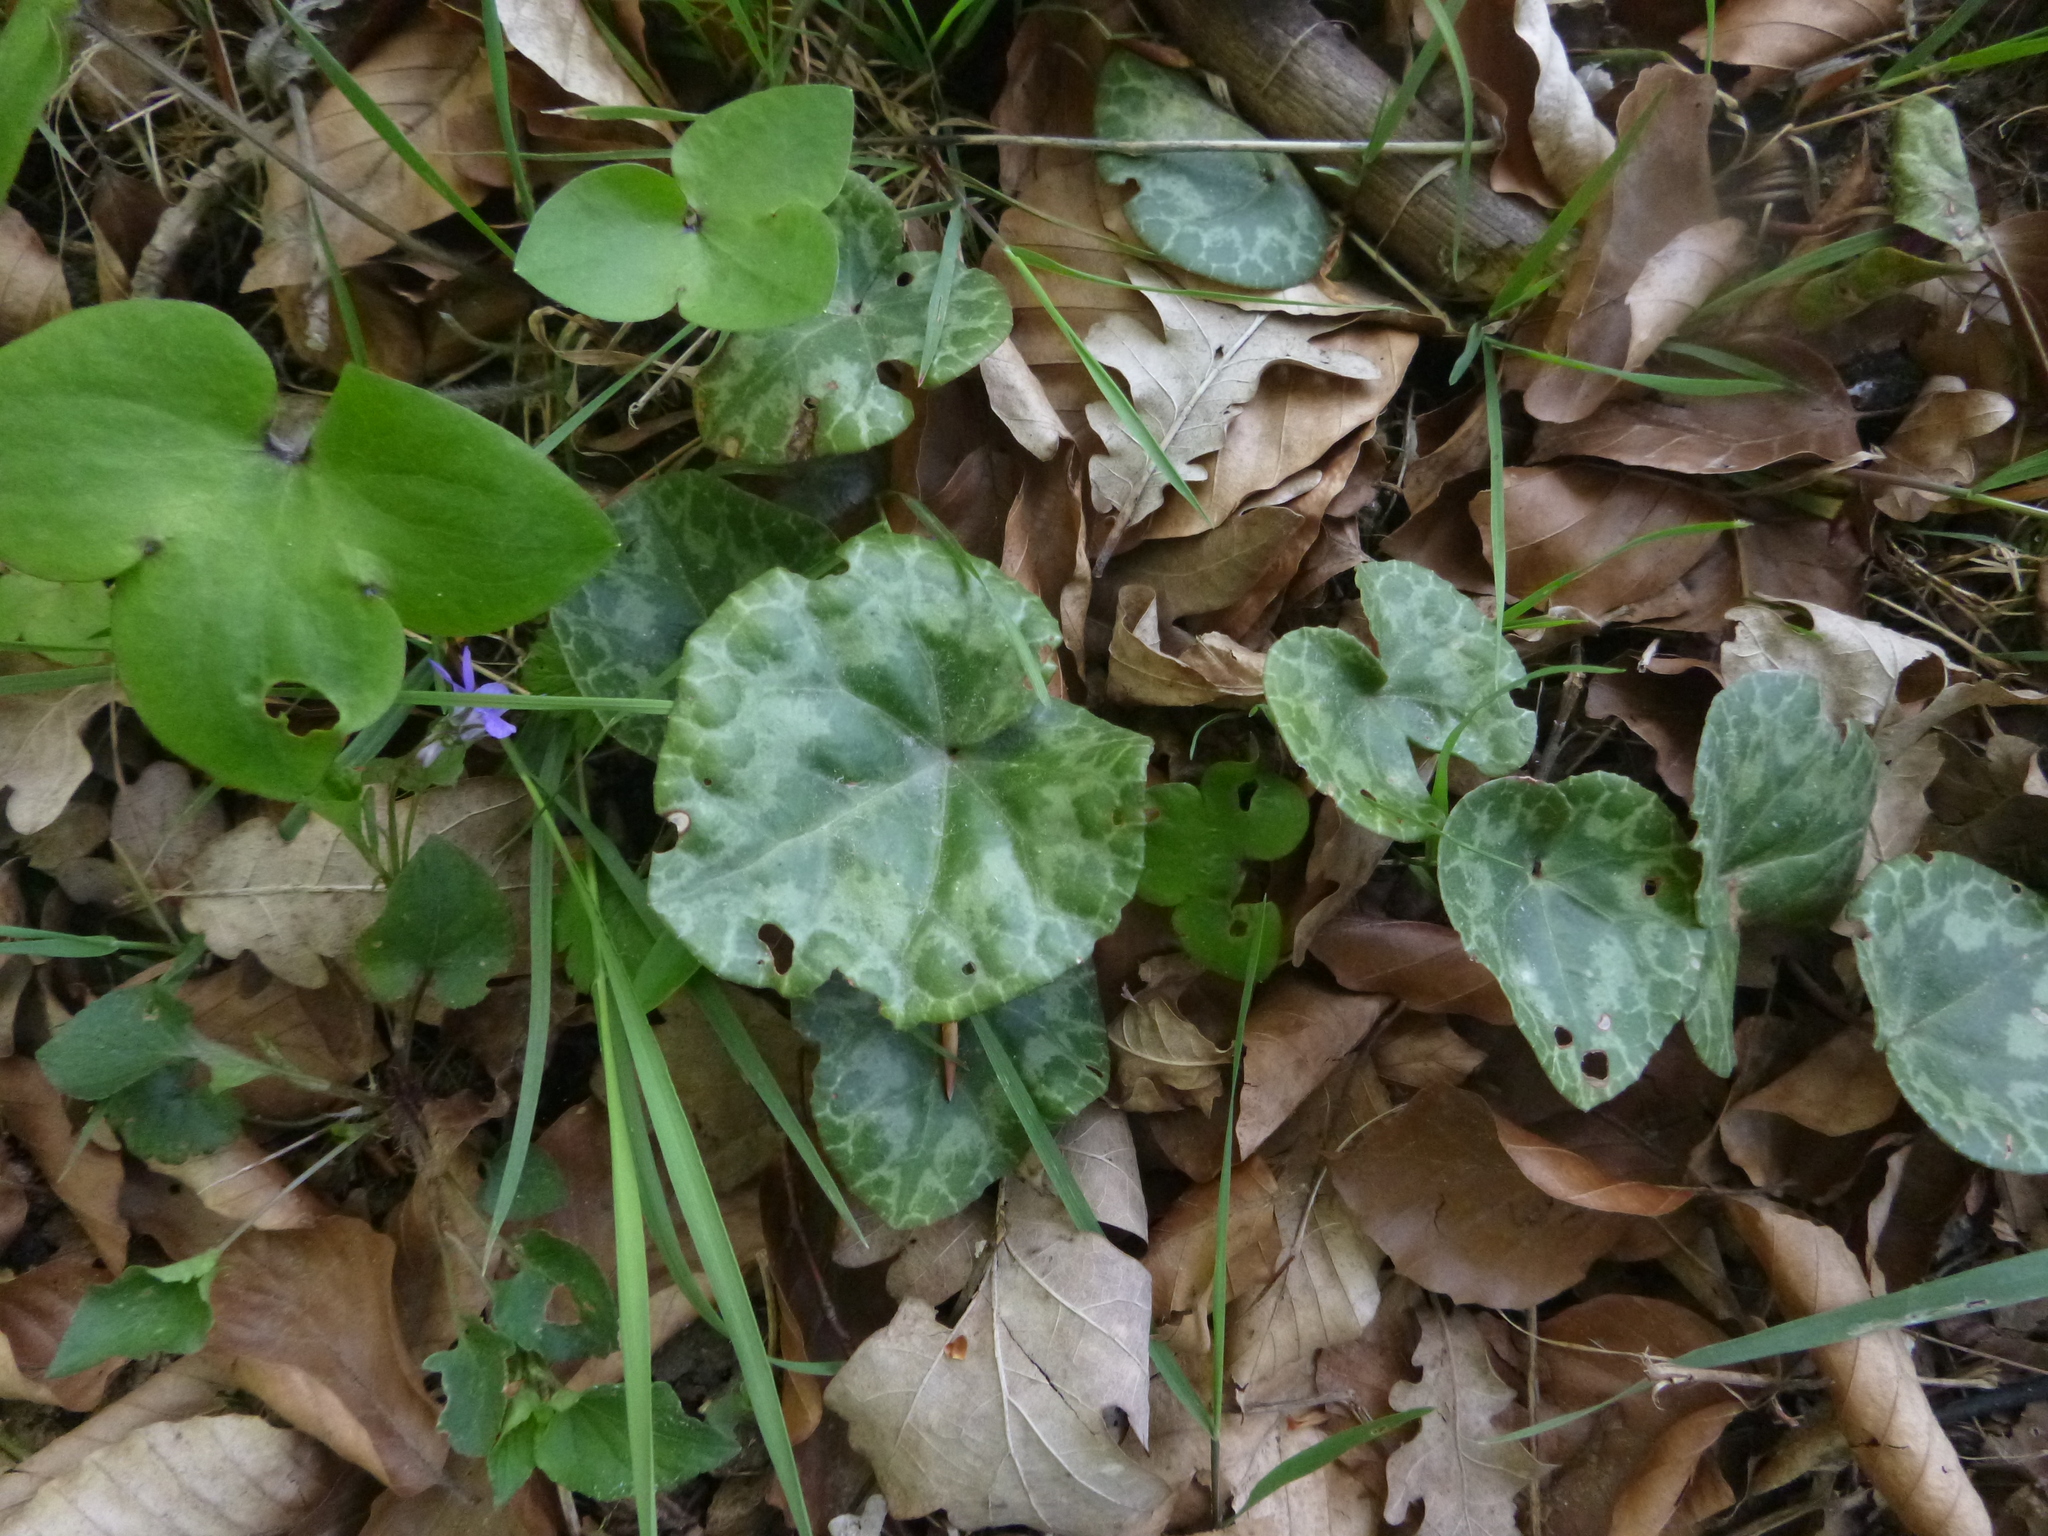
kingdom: Plantae
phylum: Tracheophyta
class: Magnoliopsida
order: Ericales
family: Primulaceae
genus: Cyclamen
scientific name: Cyclamen purpurascens
